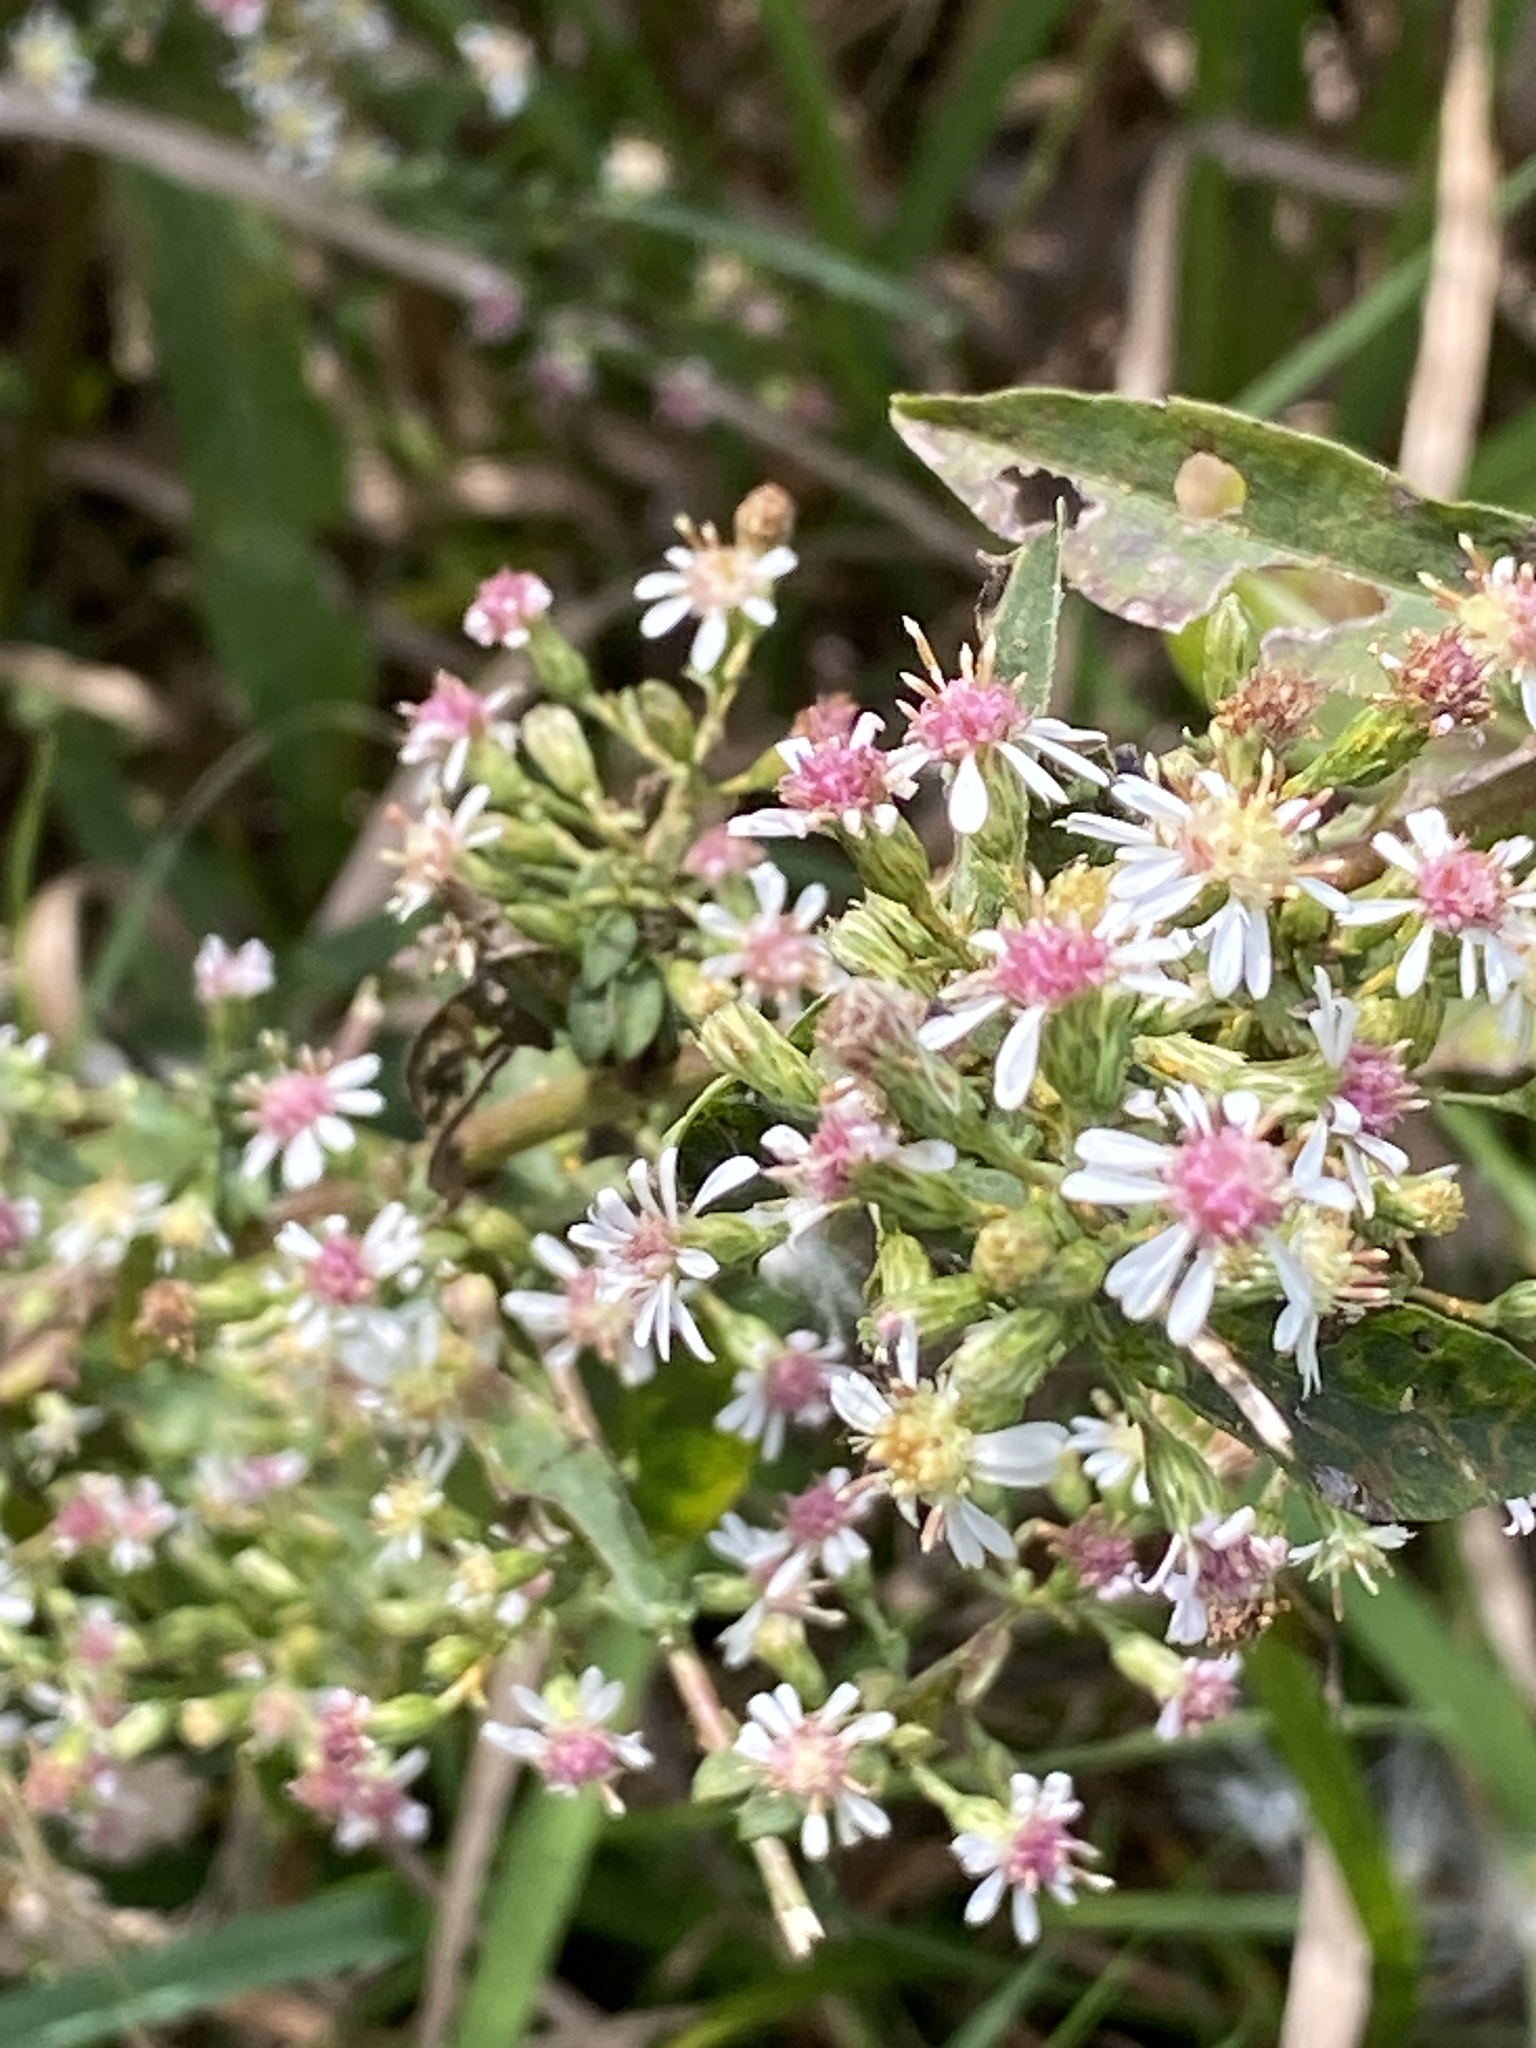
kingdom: Plantae
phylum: Tracheophyta
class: Magnoliopsida
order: Asterales
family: Asteraceae
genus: Symphyotrichum
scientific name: Symphyotrichum lateriflorum
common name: Calico aster
